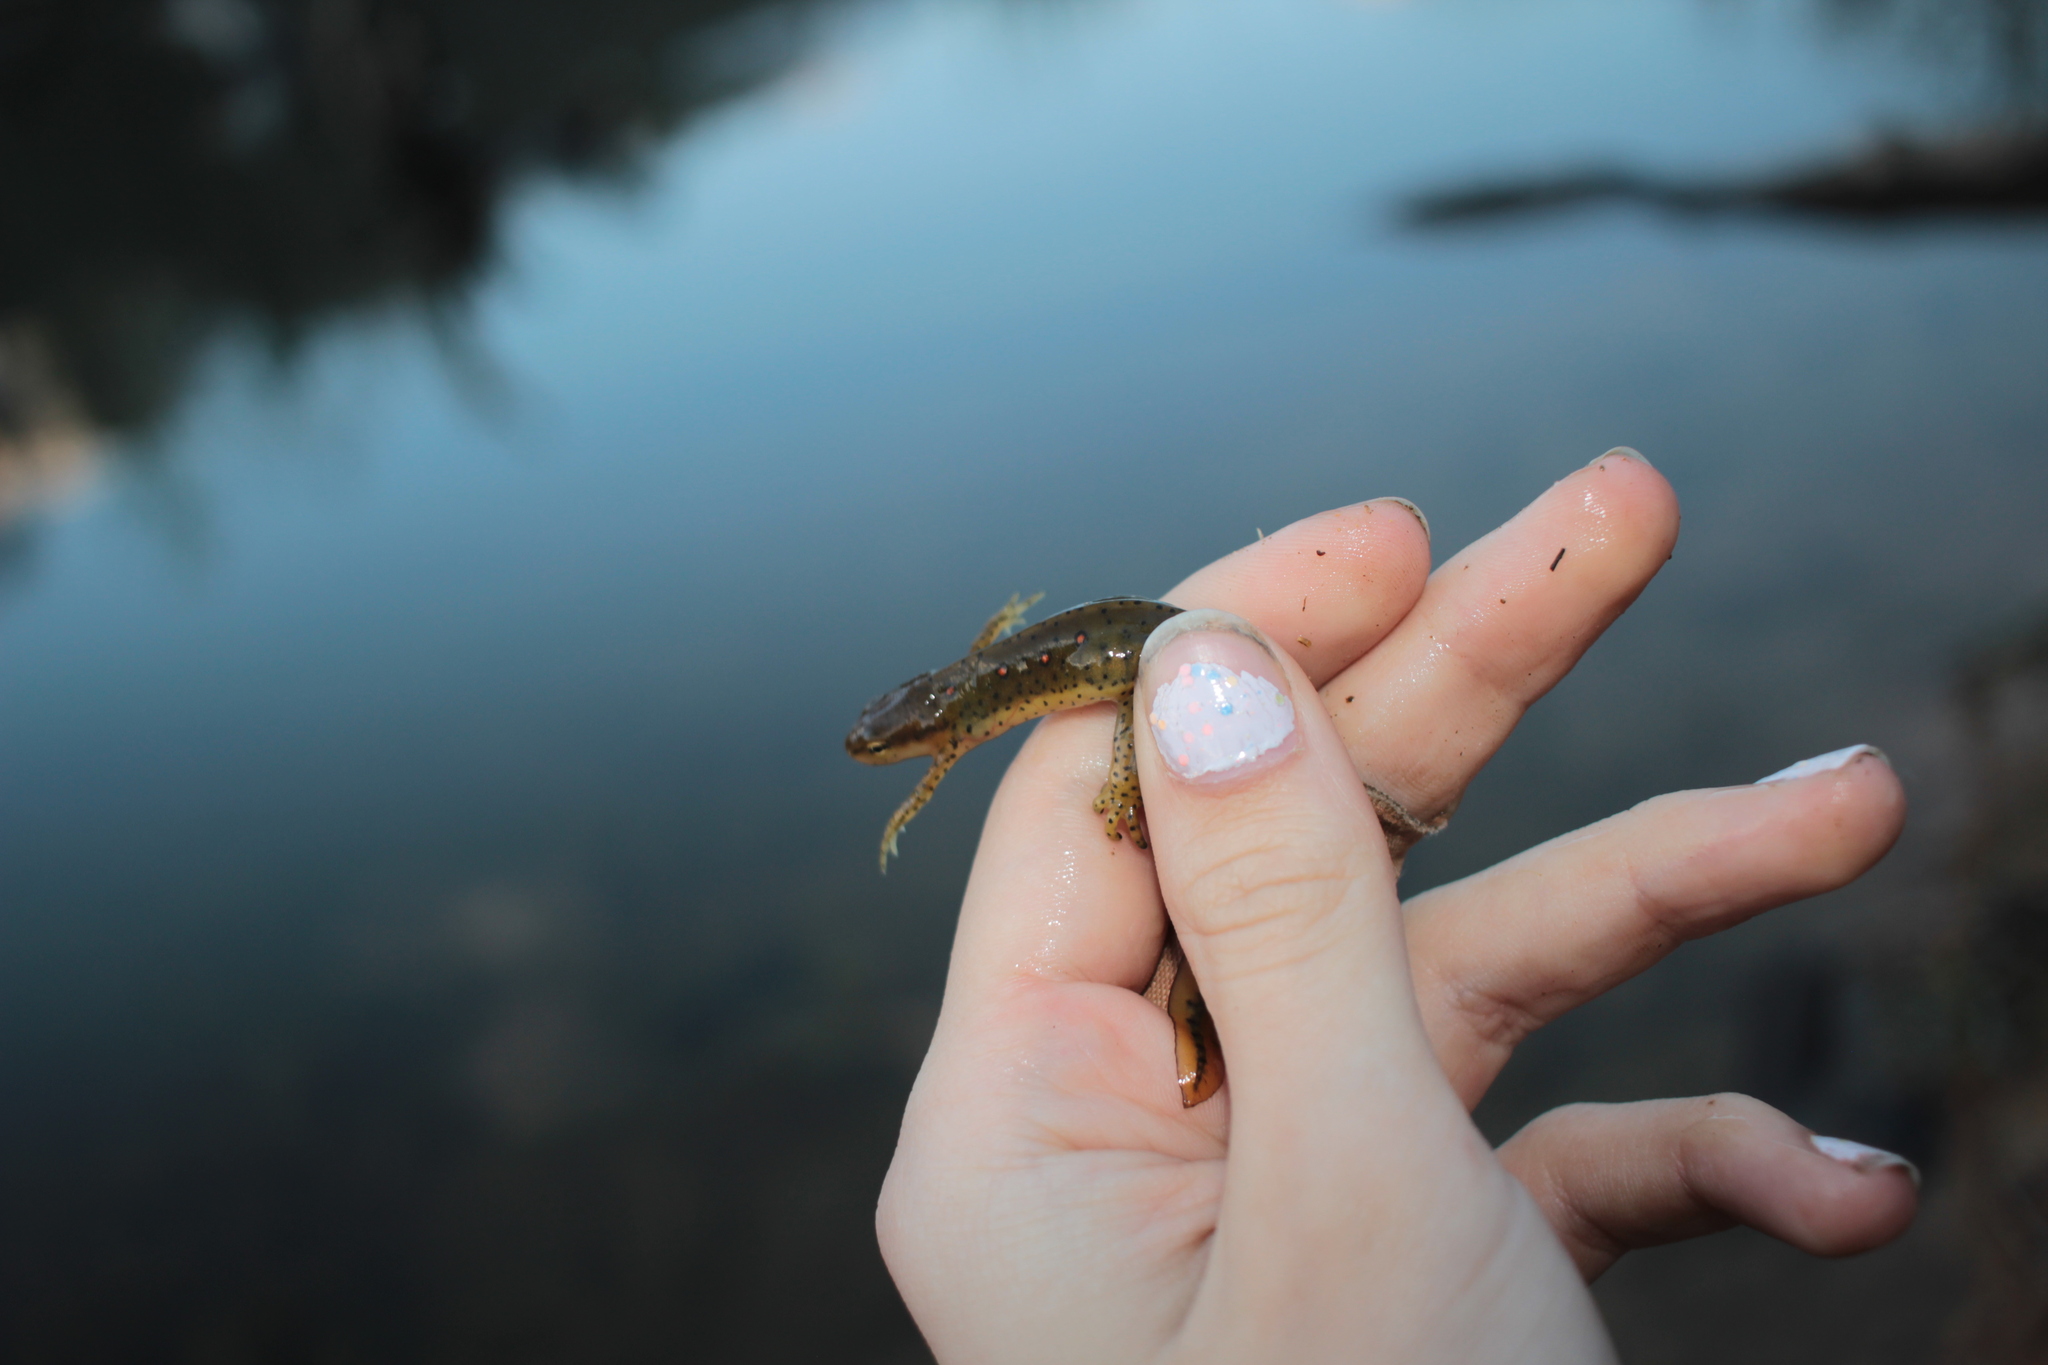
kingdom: Animalia
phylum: Chordata
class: Amphibia
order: Caudata
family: Salamandridae
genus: Notophthalmus
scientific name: Notophthalmus viridescens
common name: Eastern newt
